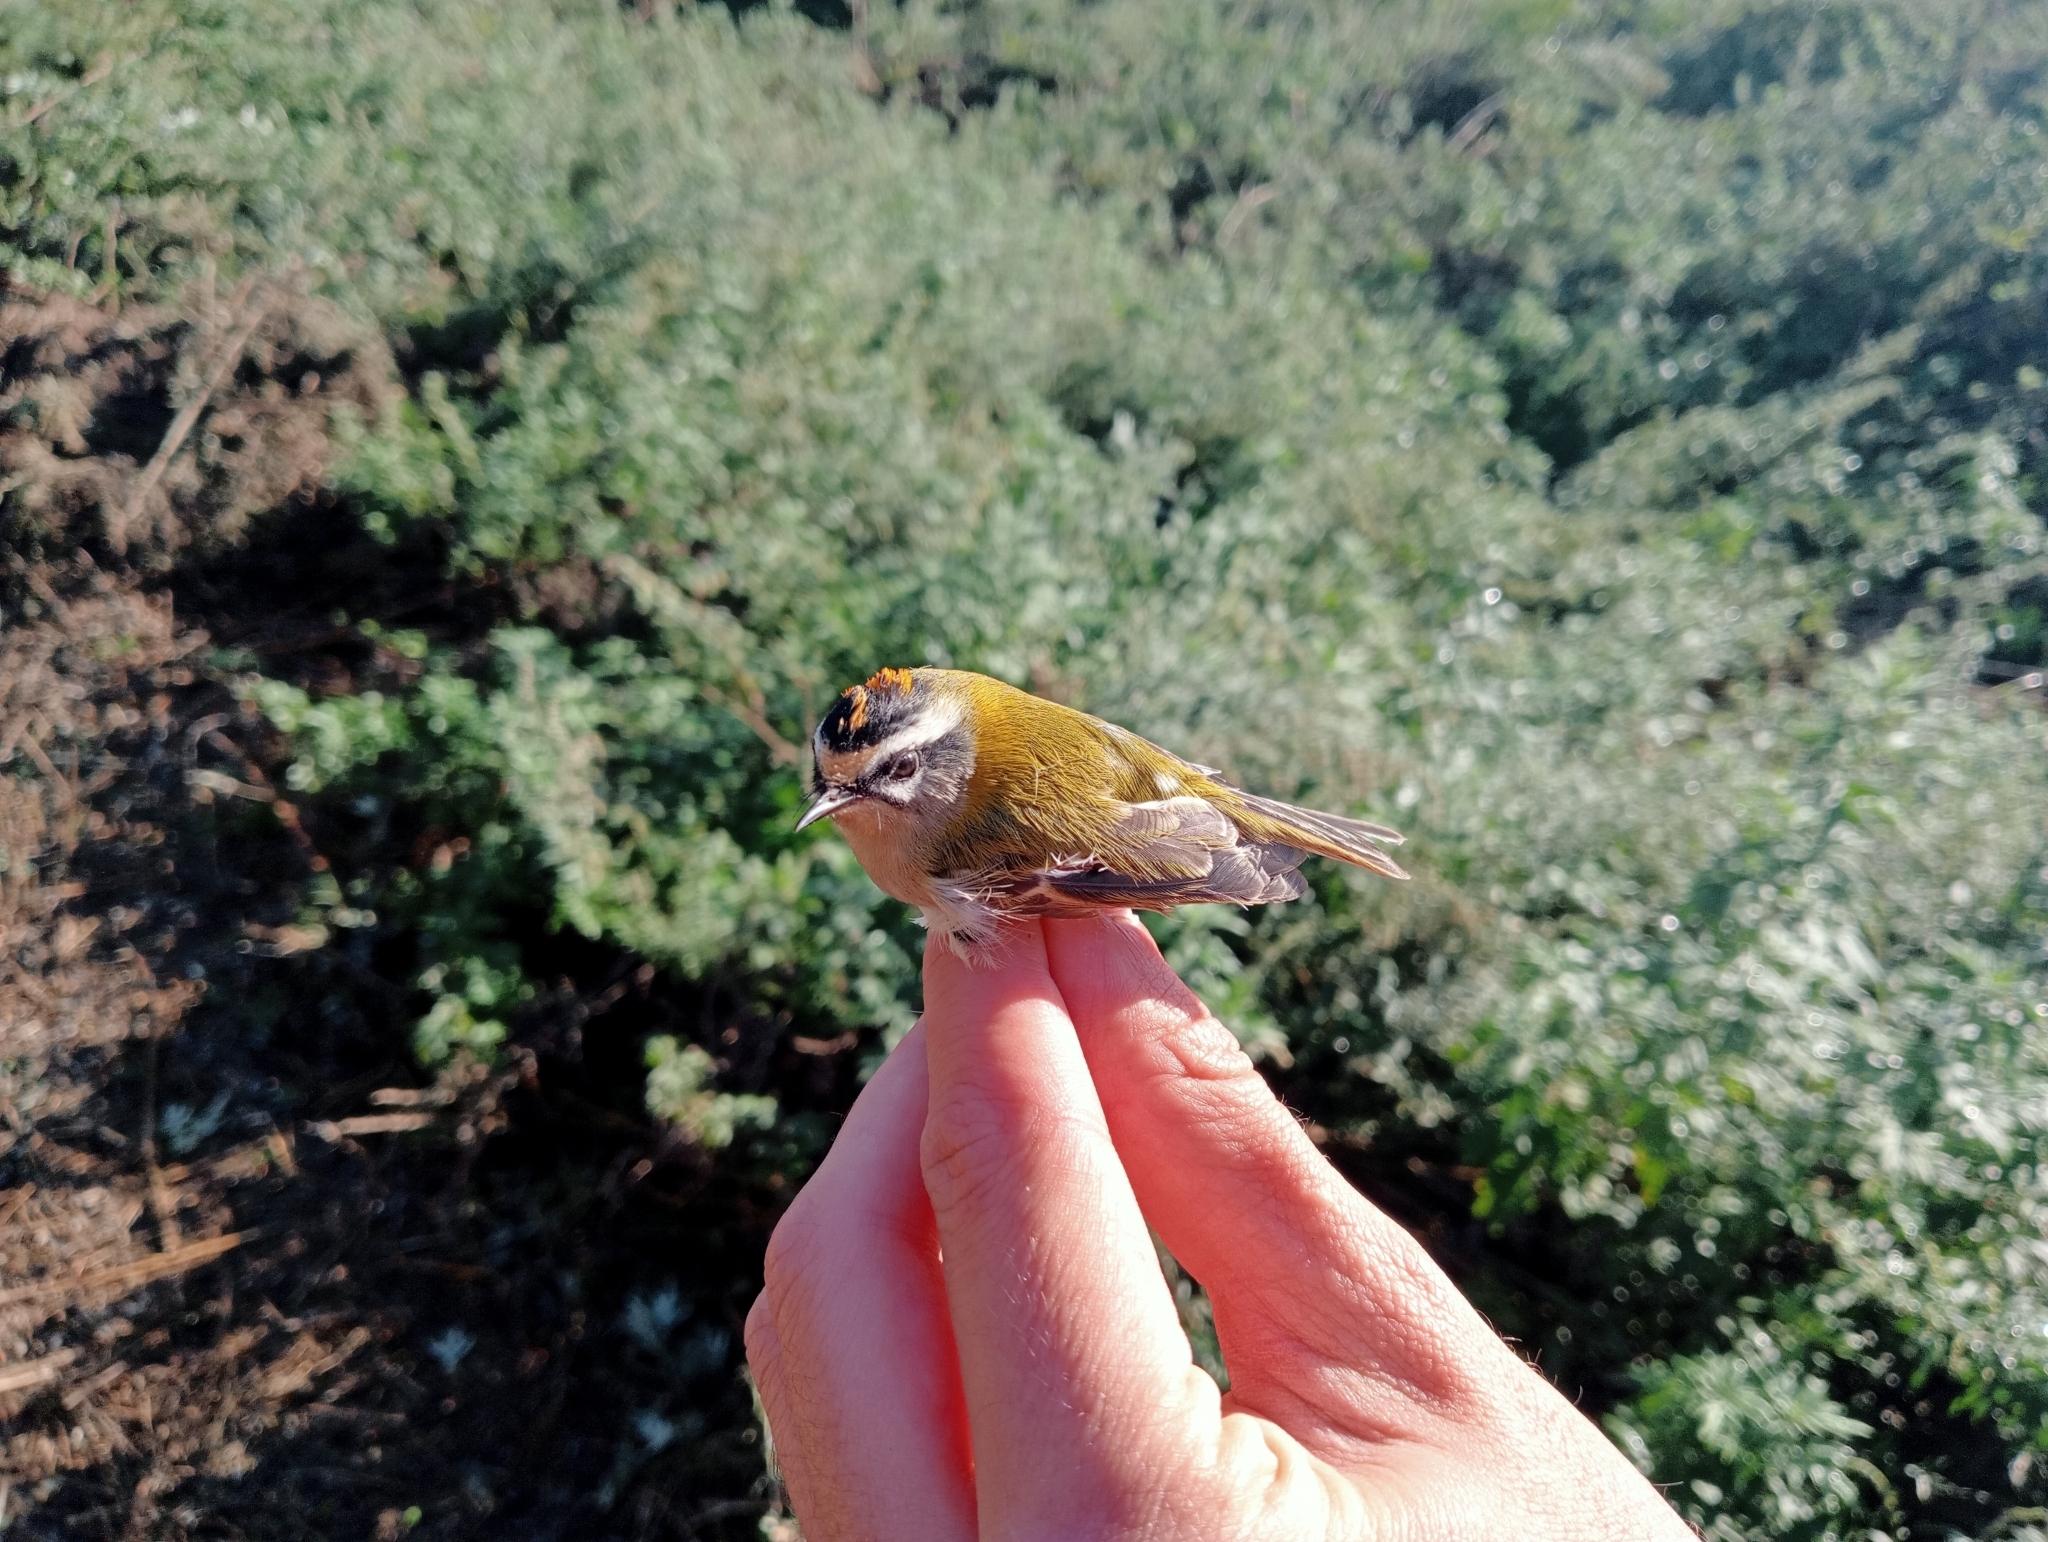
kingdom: Animalia
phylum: Chordata
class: Aves
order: Passeriformes
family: Regulidae
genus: Regulus
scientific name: Regulus ignicapilla
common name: Firecrest
